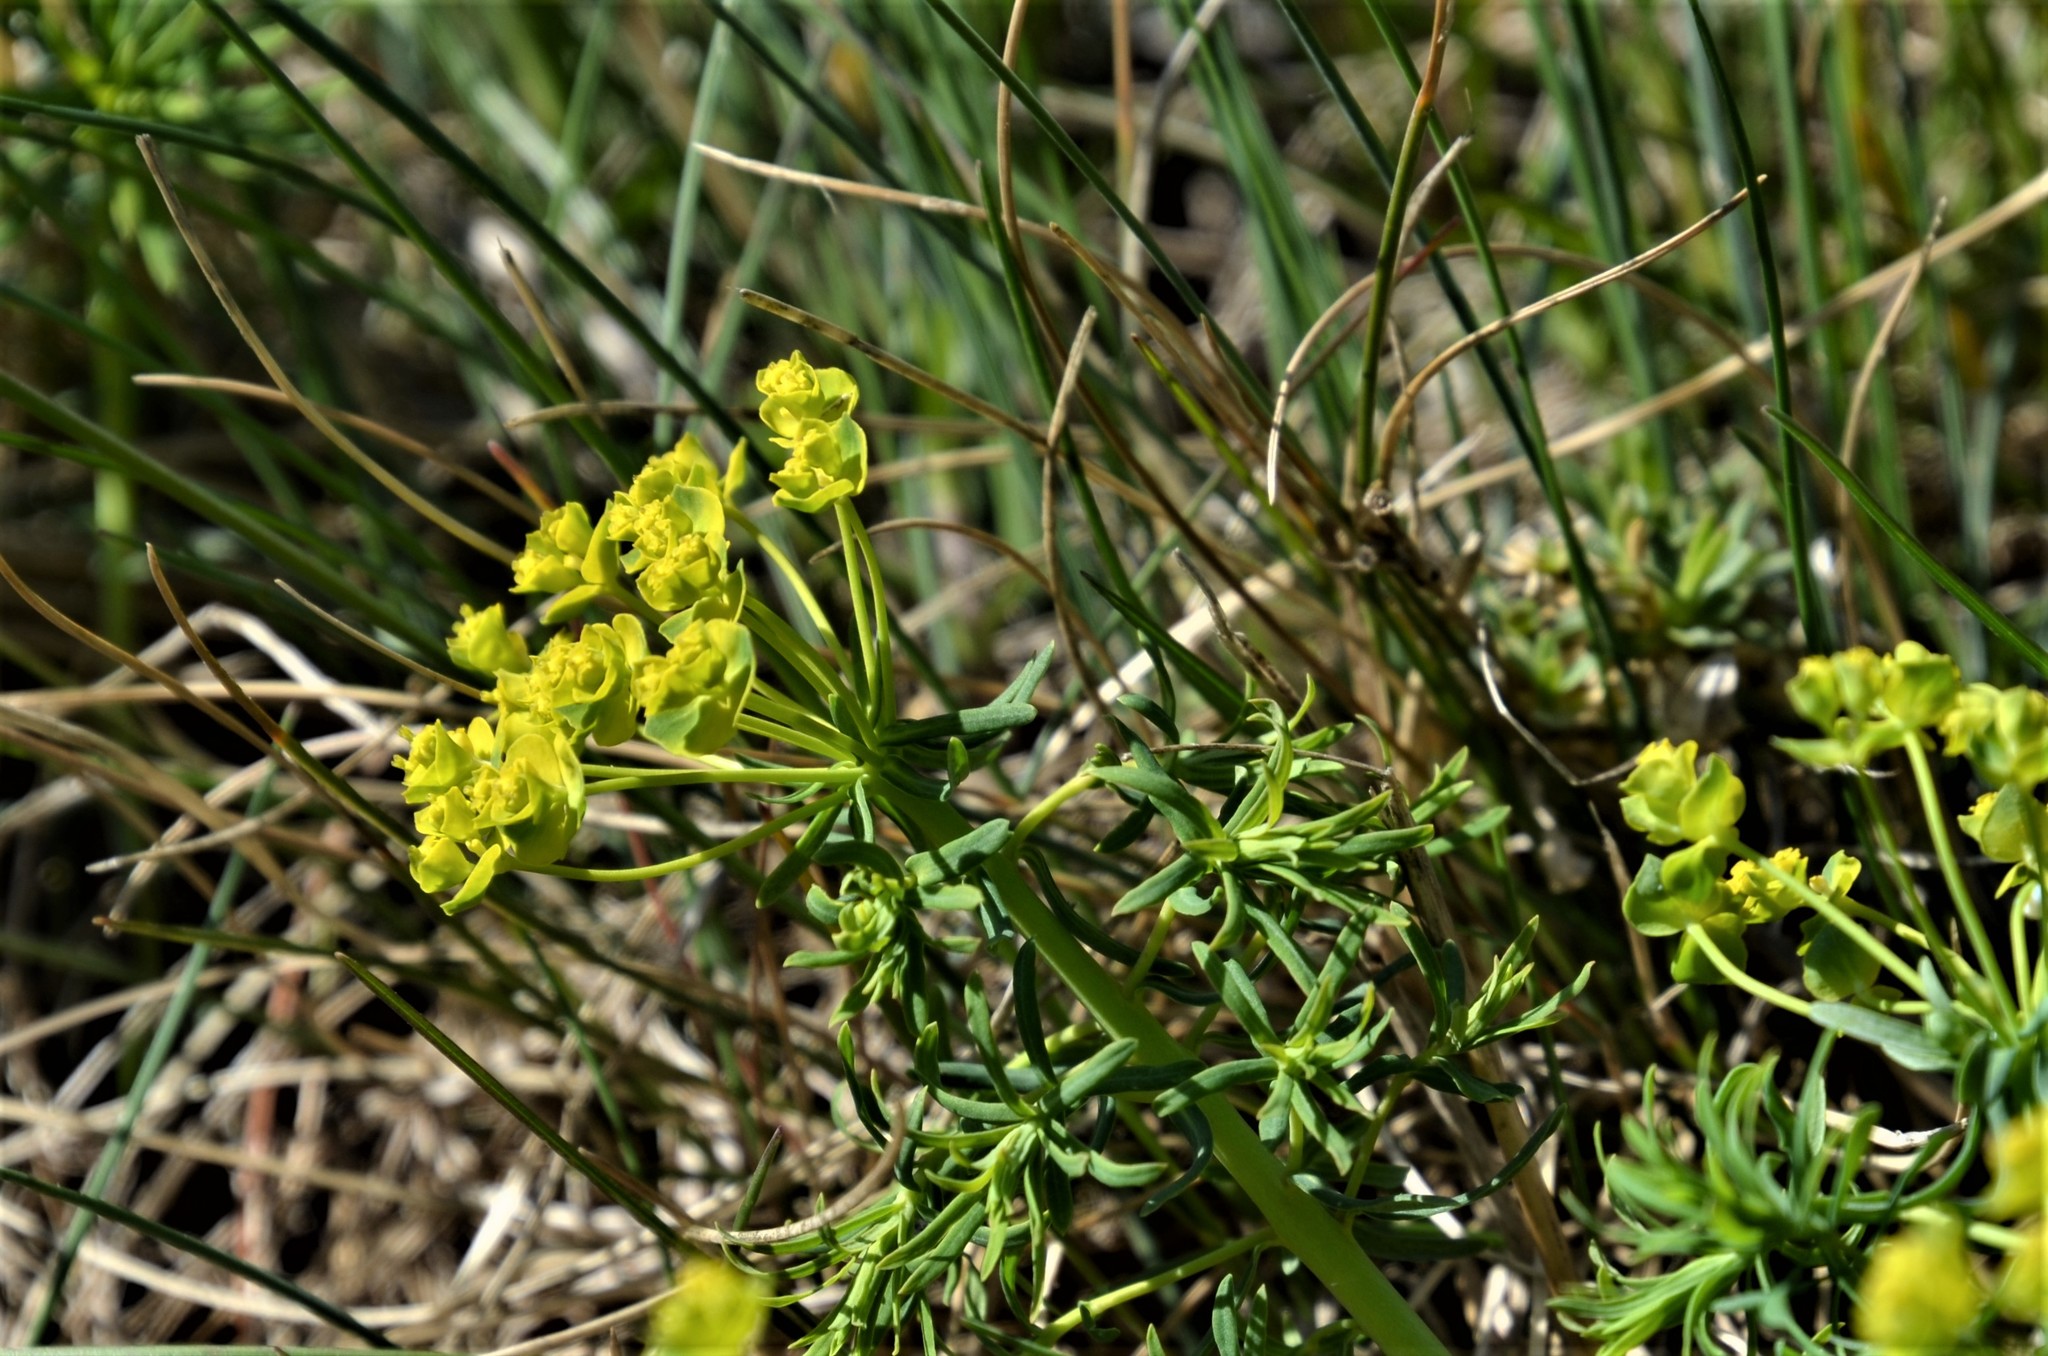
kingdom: Plantae
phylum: Tracheophyta
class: Magnoliopsida
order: Malpighiales
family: Euphorbiaceae
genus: Euphorbia
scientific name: Euphorbia cyparissias
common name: Cypress spurge
